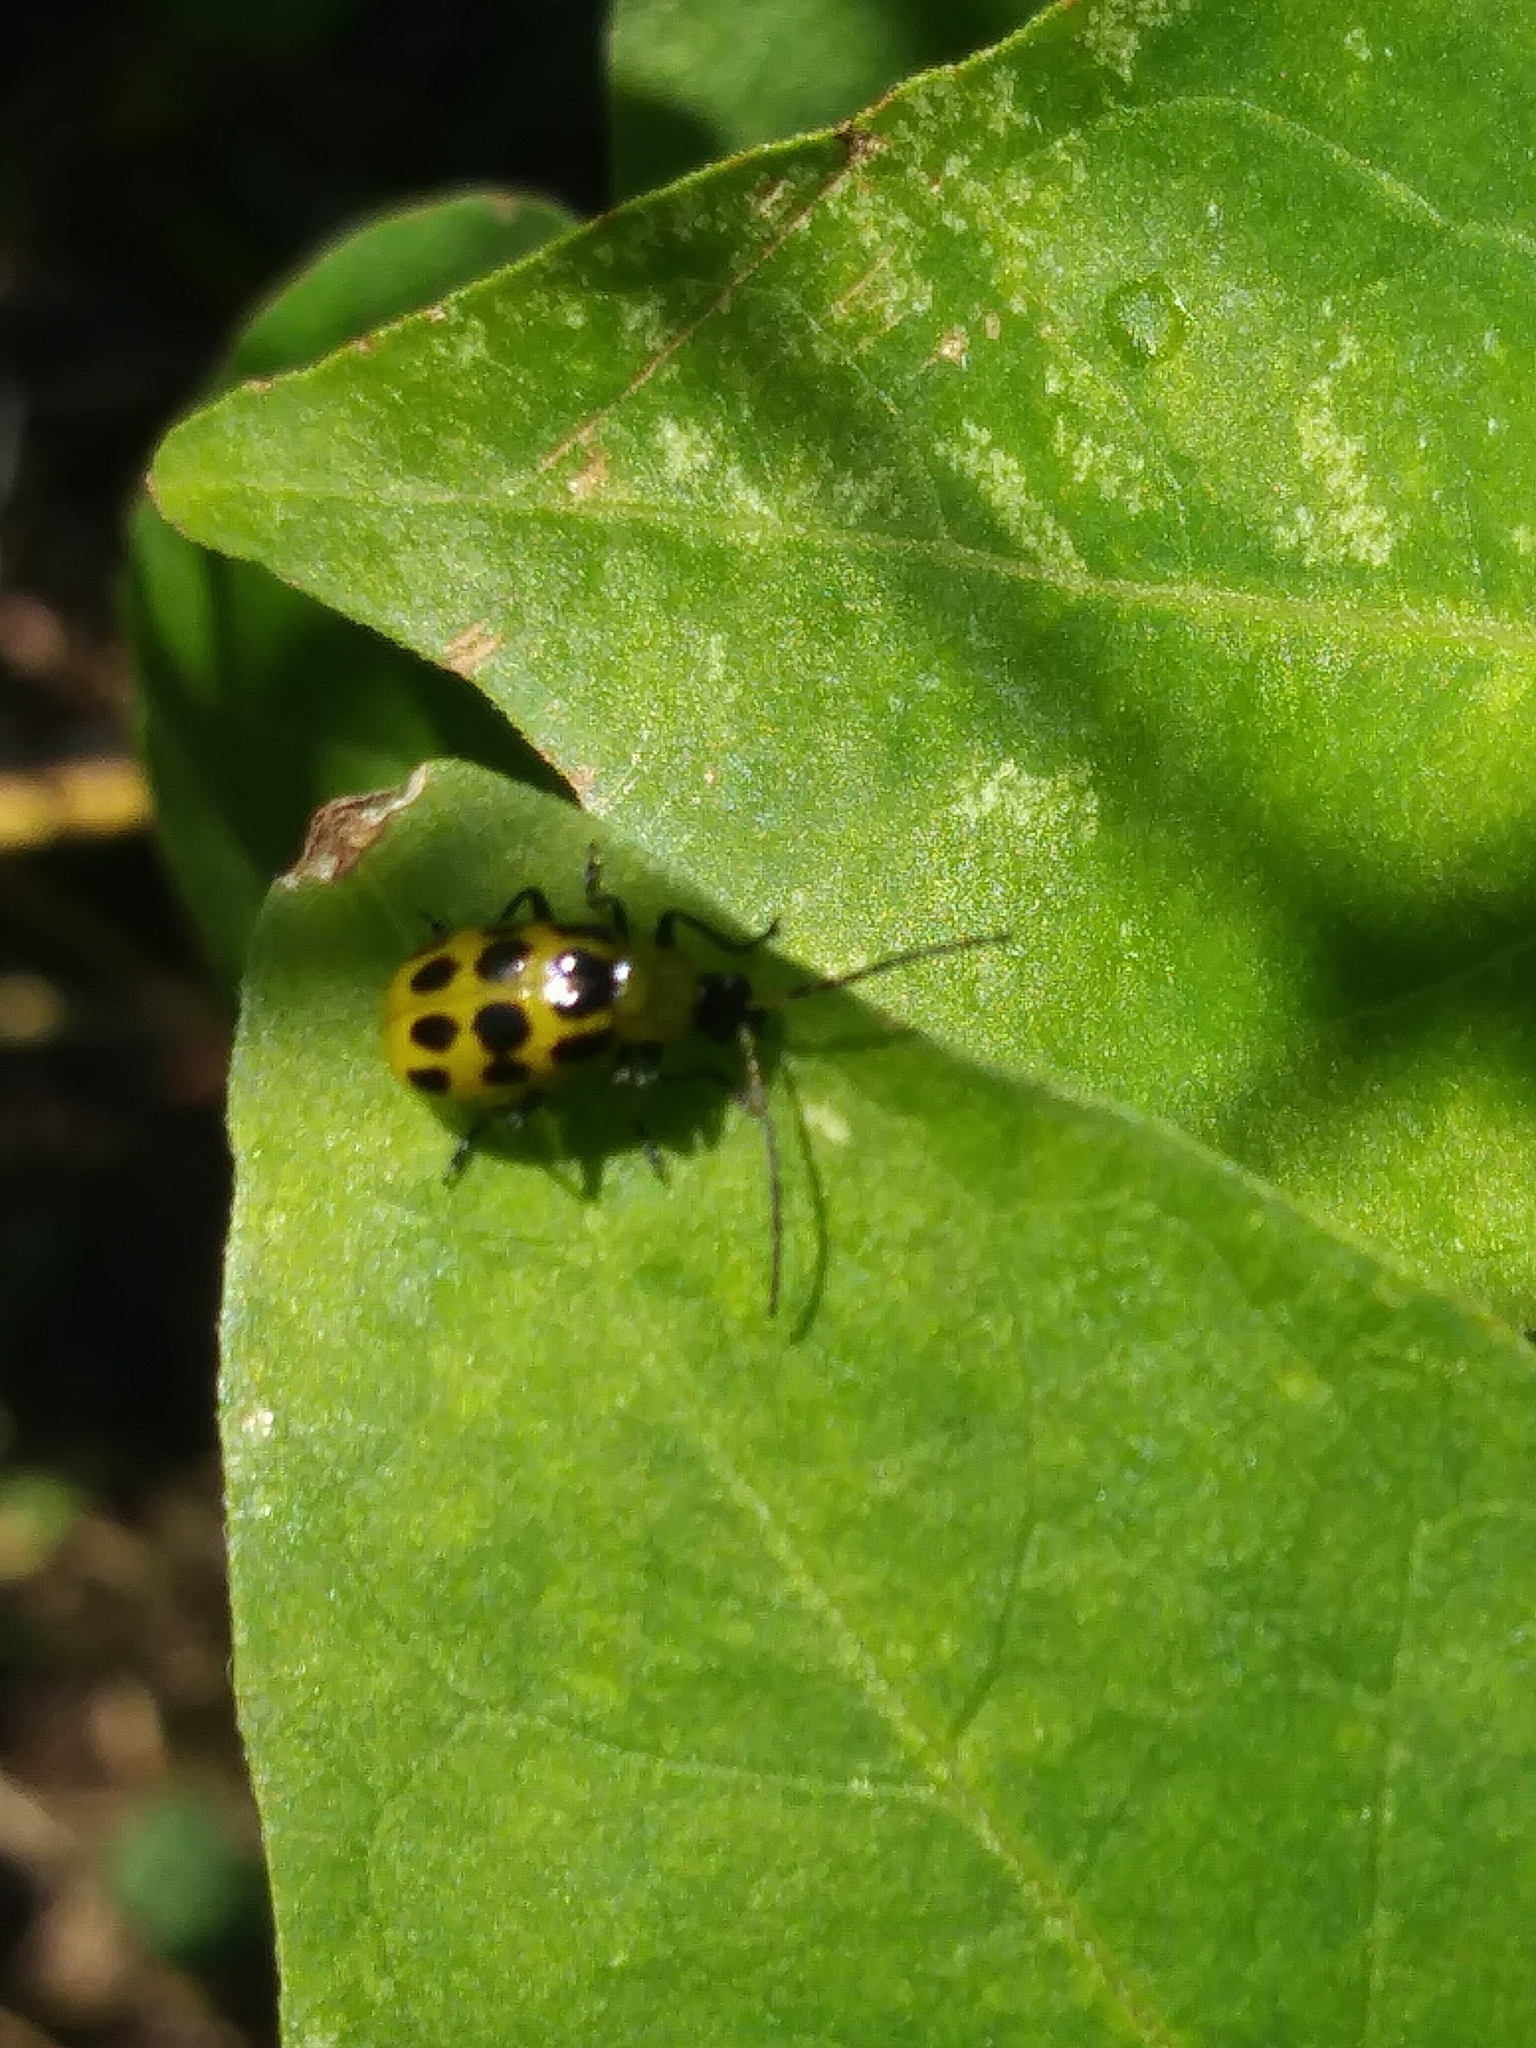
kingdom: Animalia
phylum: Arthropoda
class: Insecta
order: Coleoptera
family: Chrysomelidae
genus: Diabrotica
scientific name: Diabrotica undecimpunctata
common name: Spotted cucumber beetle
